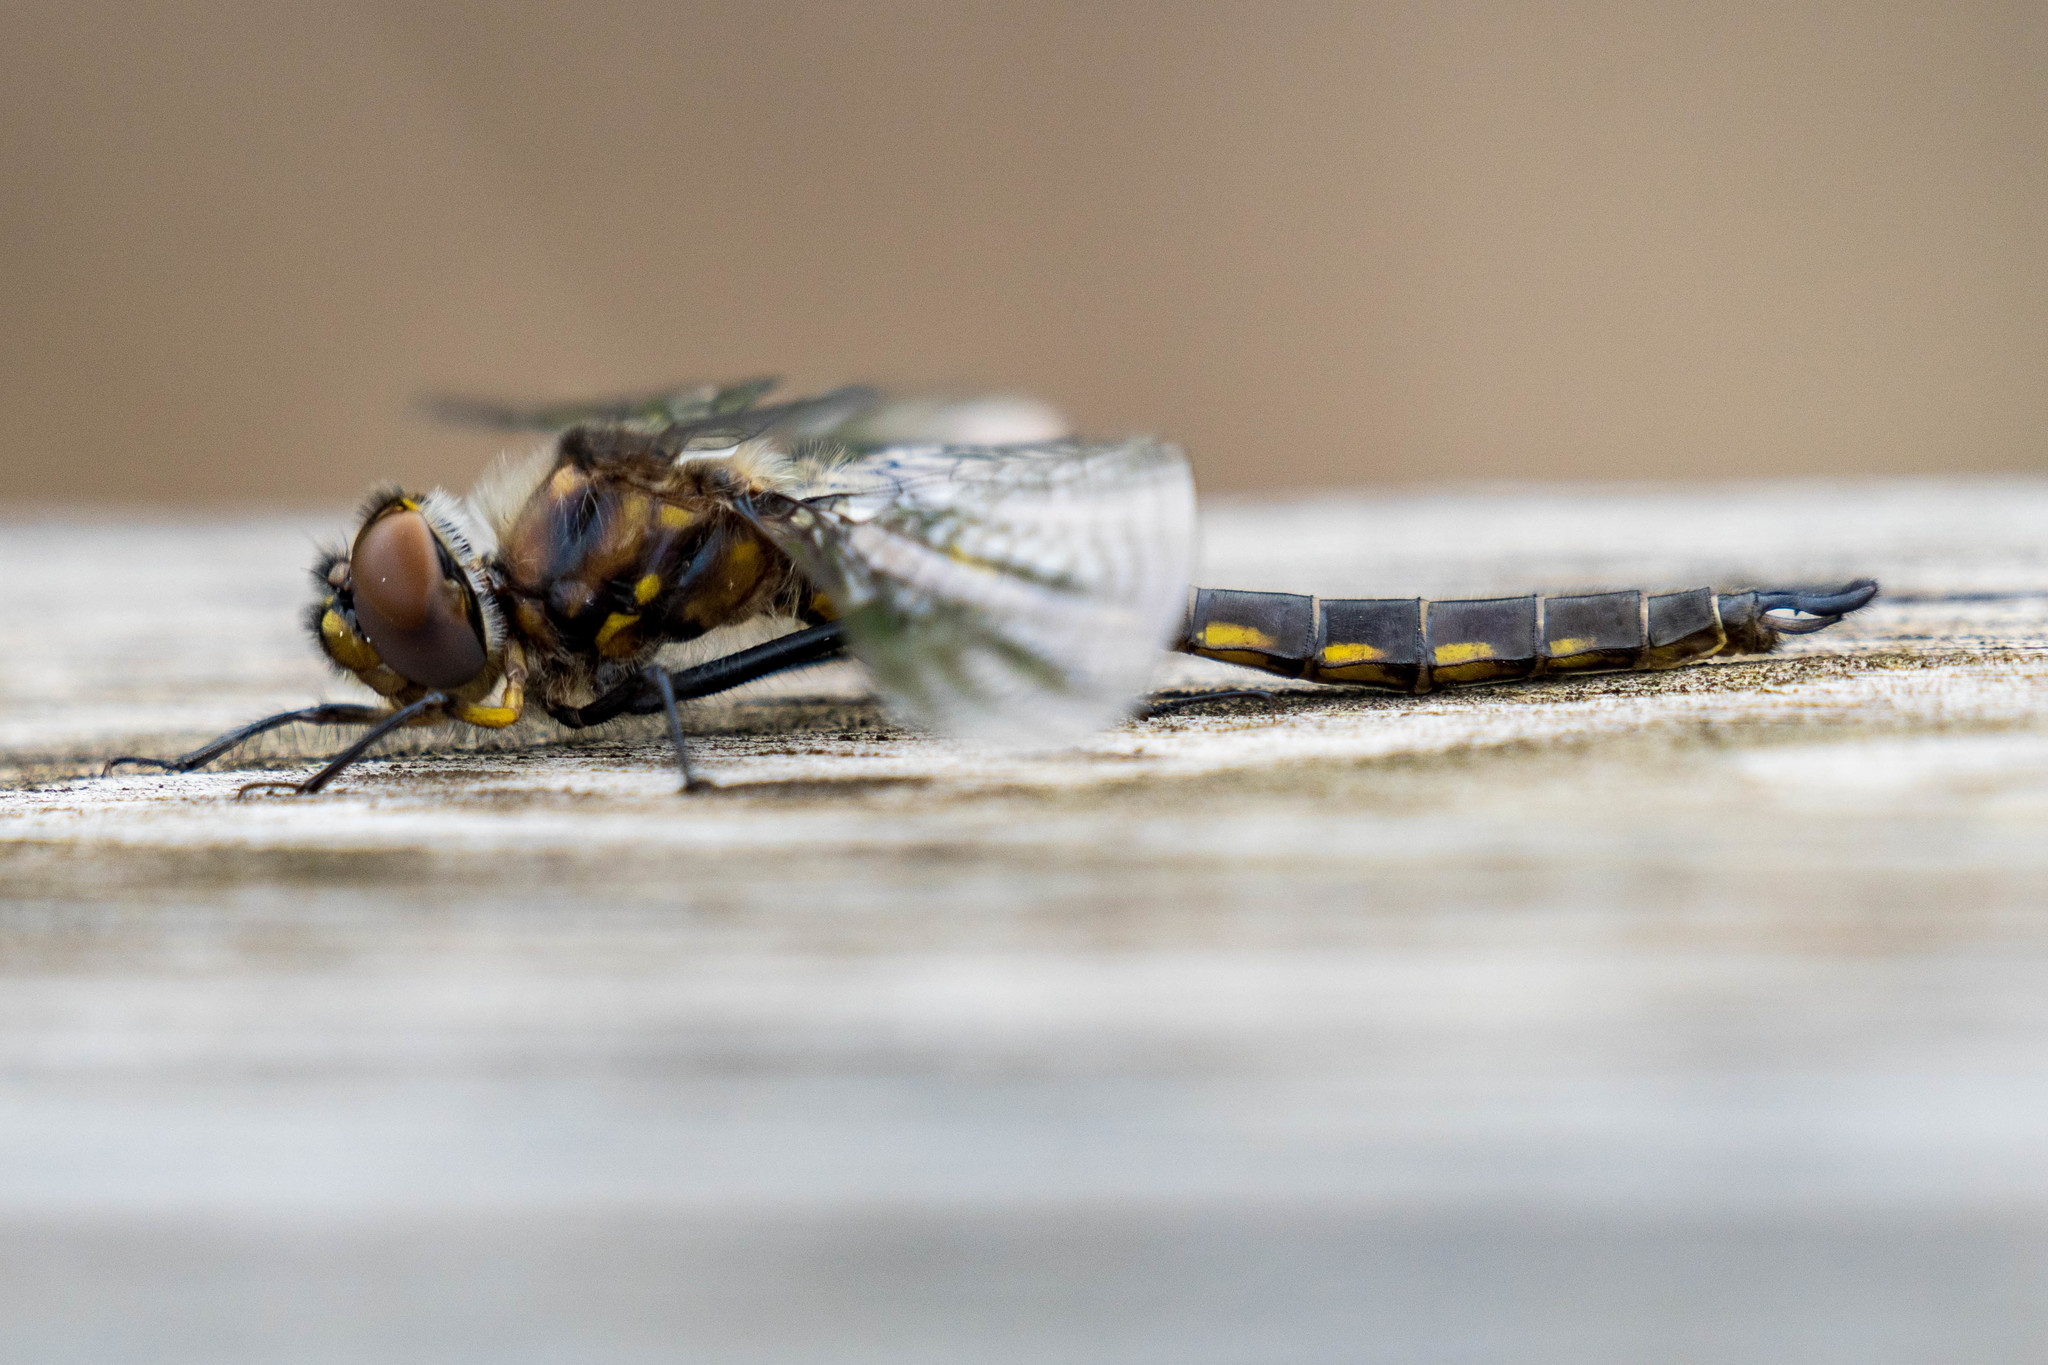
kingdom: Animalia
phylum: Arthropoda
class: Insecta
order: Odonata
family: Corduliidae
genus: Epitheca
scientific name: Epitheca spinigera
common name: Spiny baskettail
